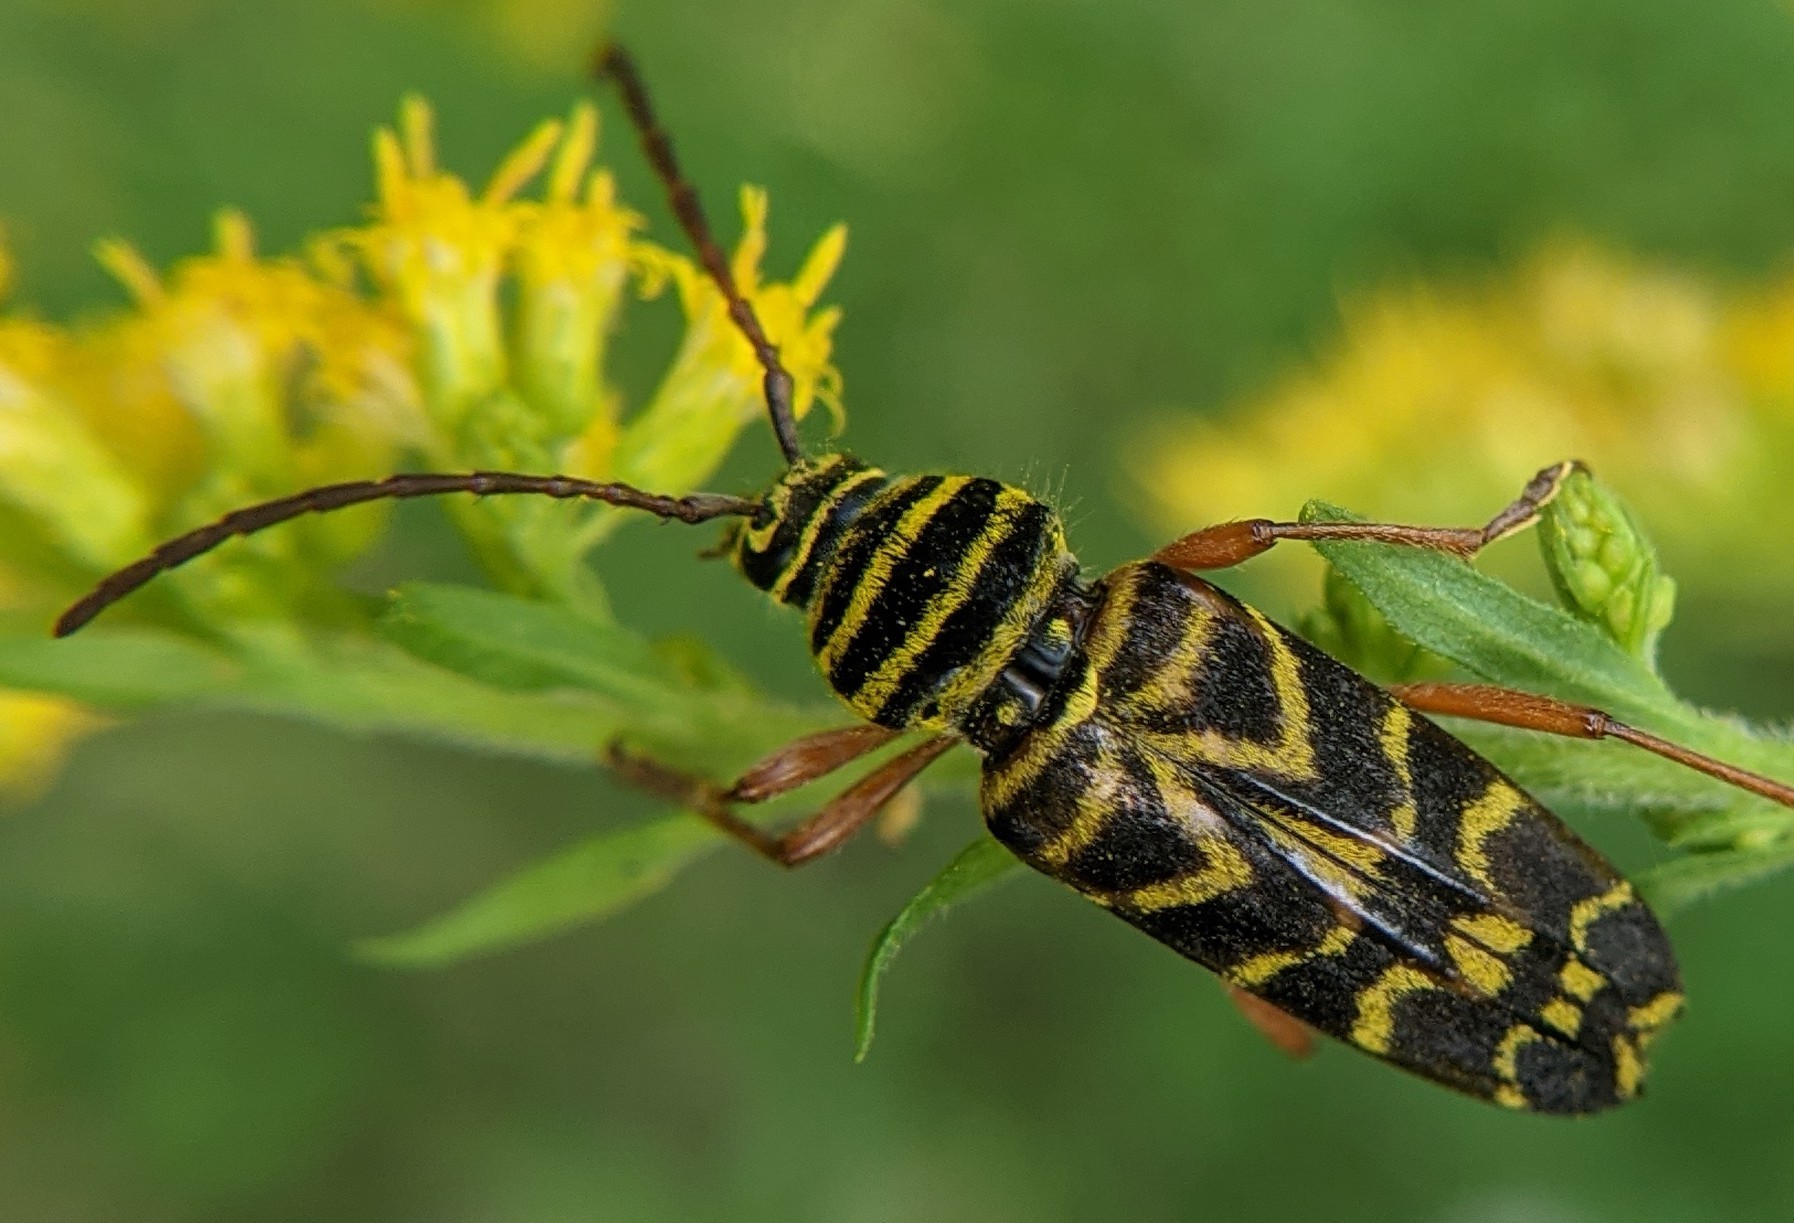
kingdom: Animalia
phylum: Arthropoda
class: Insecta
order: Coleoptera
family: Cerambycidae
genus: Megacyllene
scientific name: Megacyllene robiniae
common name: Locust borer
